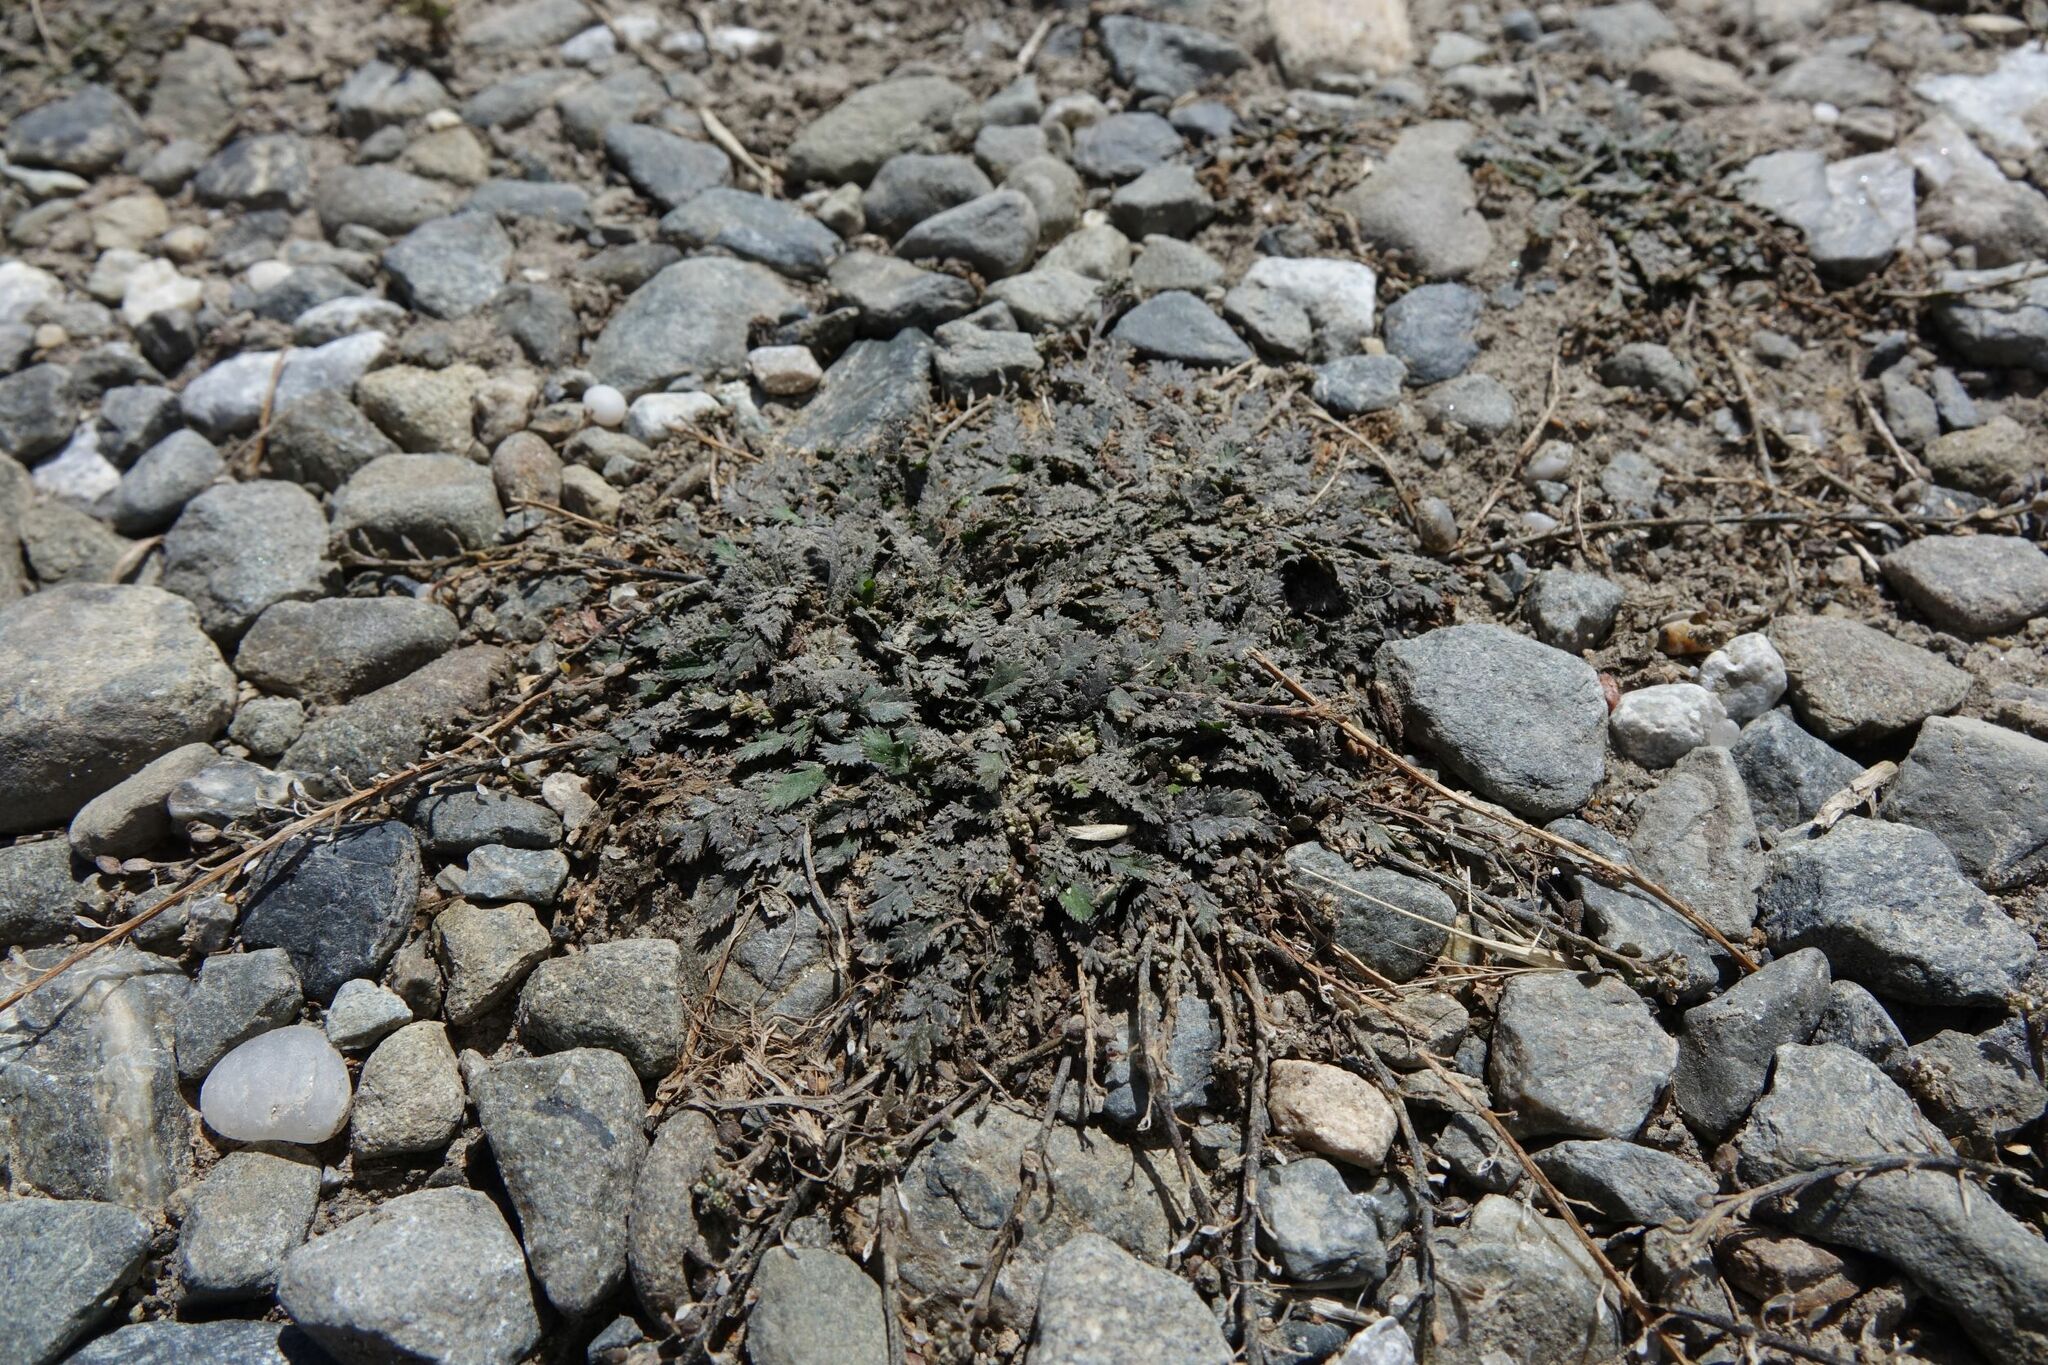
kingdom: Plantae
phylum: Tracheophyta
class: Magnoliopsida
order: Brassicales
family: Brassicaceae
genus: Lepidium
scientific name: Lepidium tenuicaule
